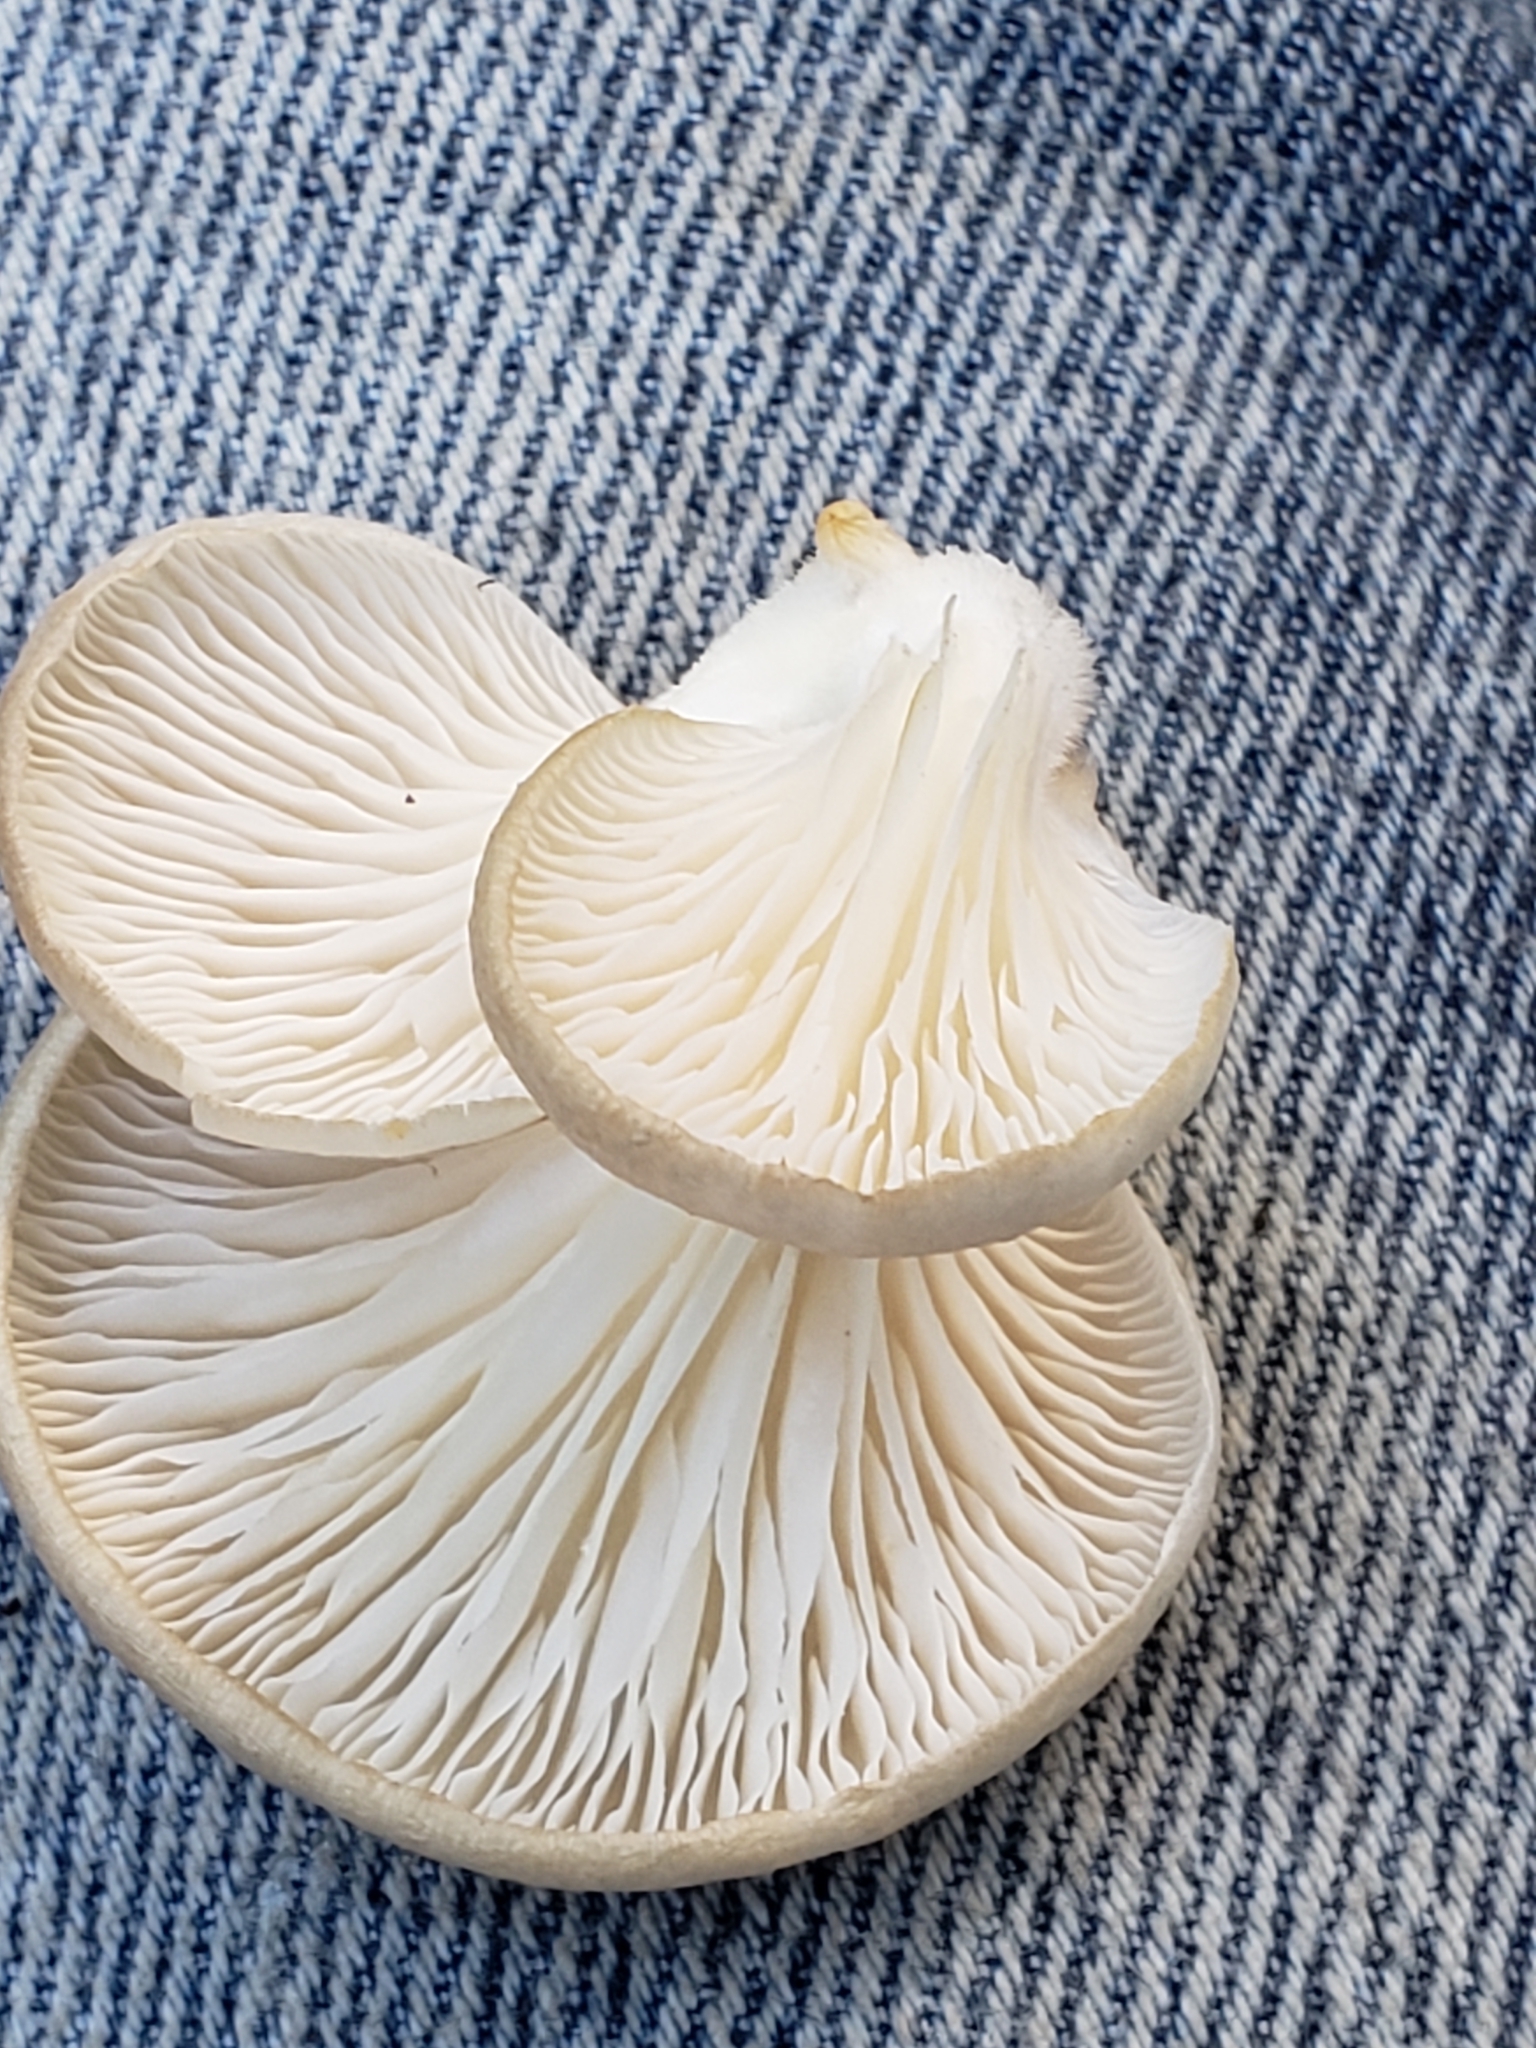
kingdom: Fungi
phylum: Basidiomycota
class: Agaricomycetes
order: Agaricales
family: Pleurotaceae
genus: Pleurotus
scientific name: Pleurotus ostreatus
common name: Oyster mushroom
